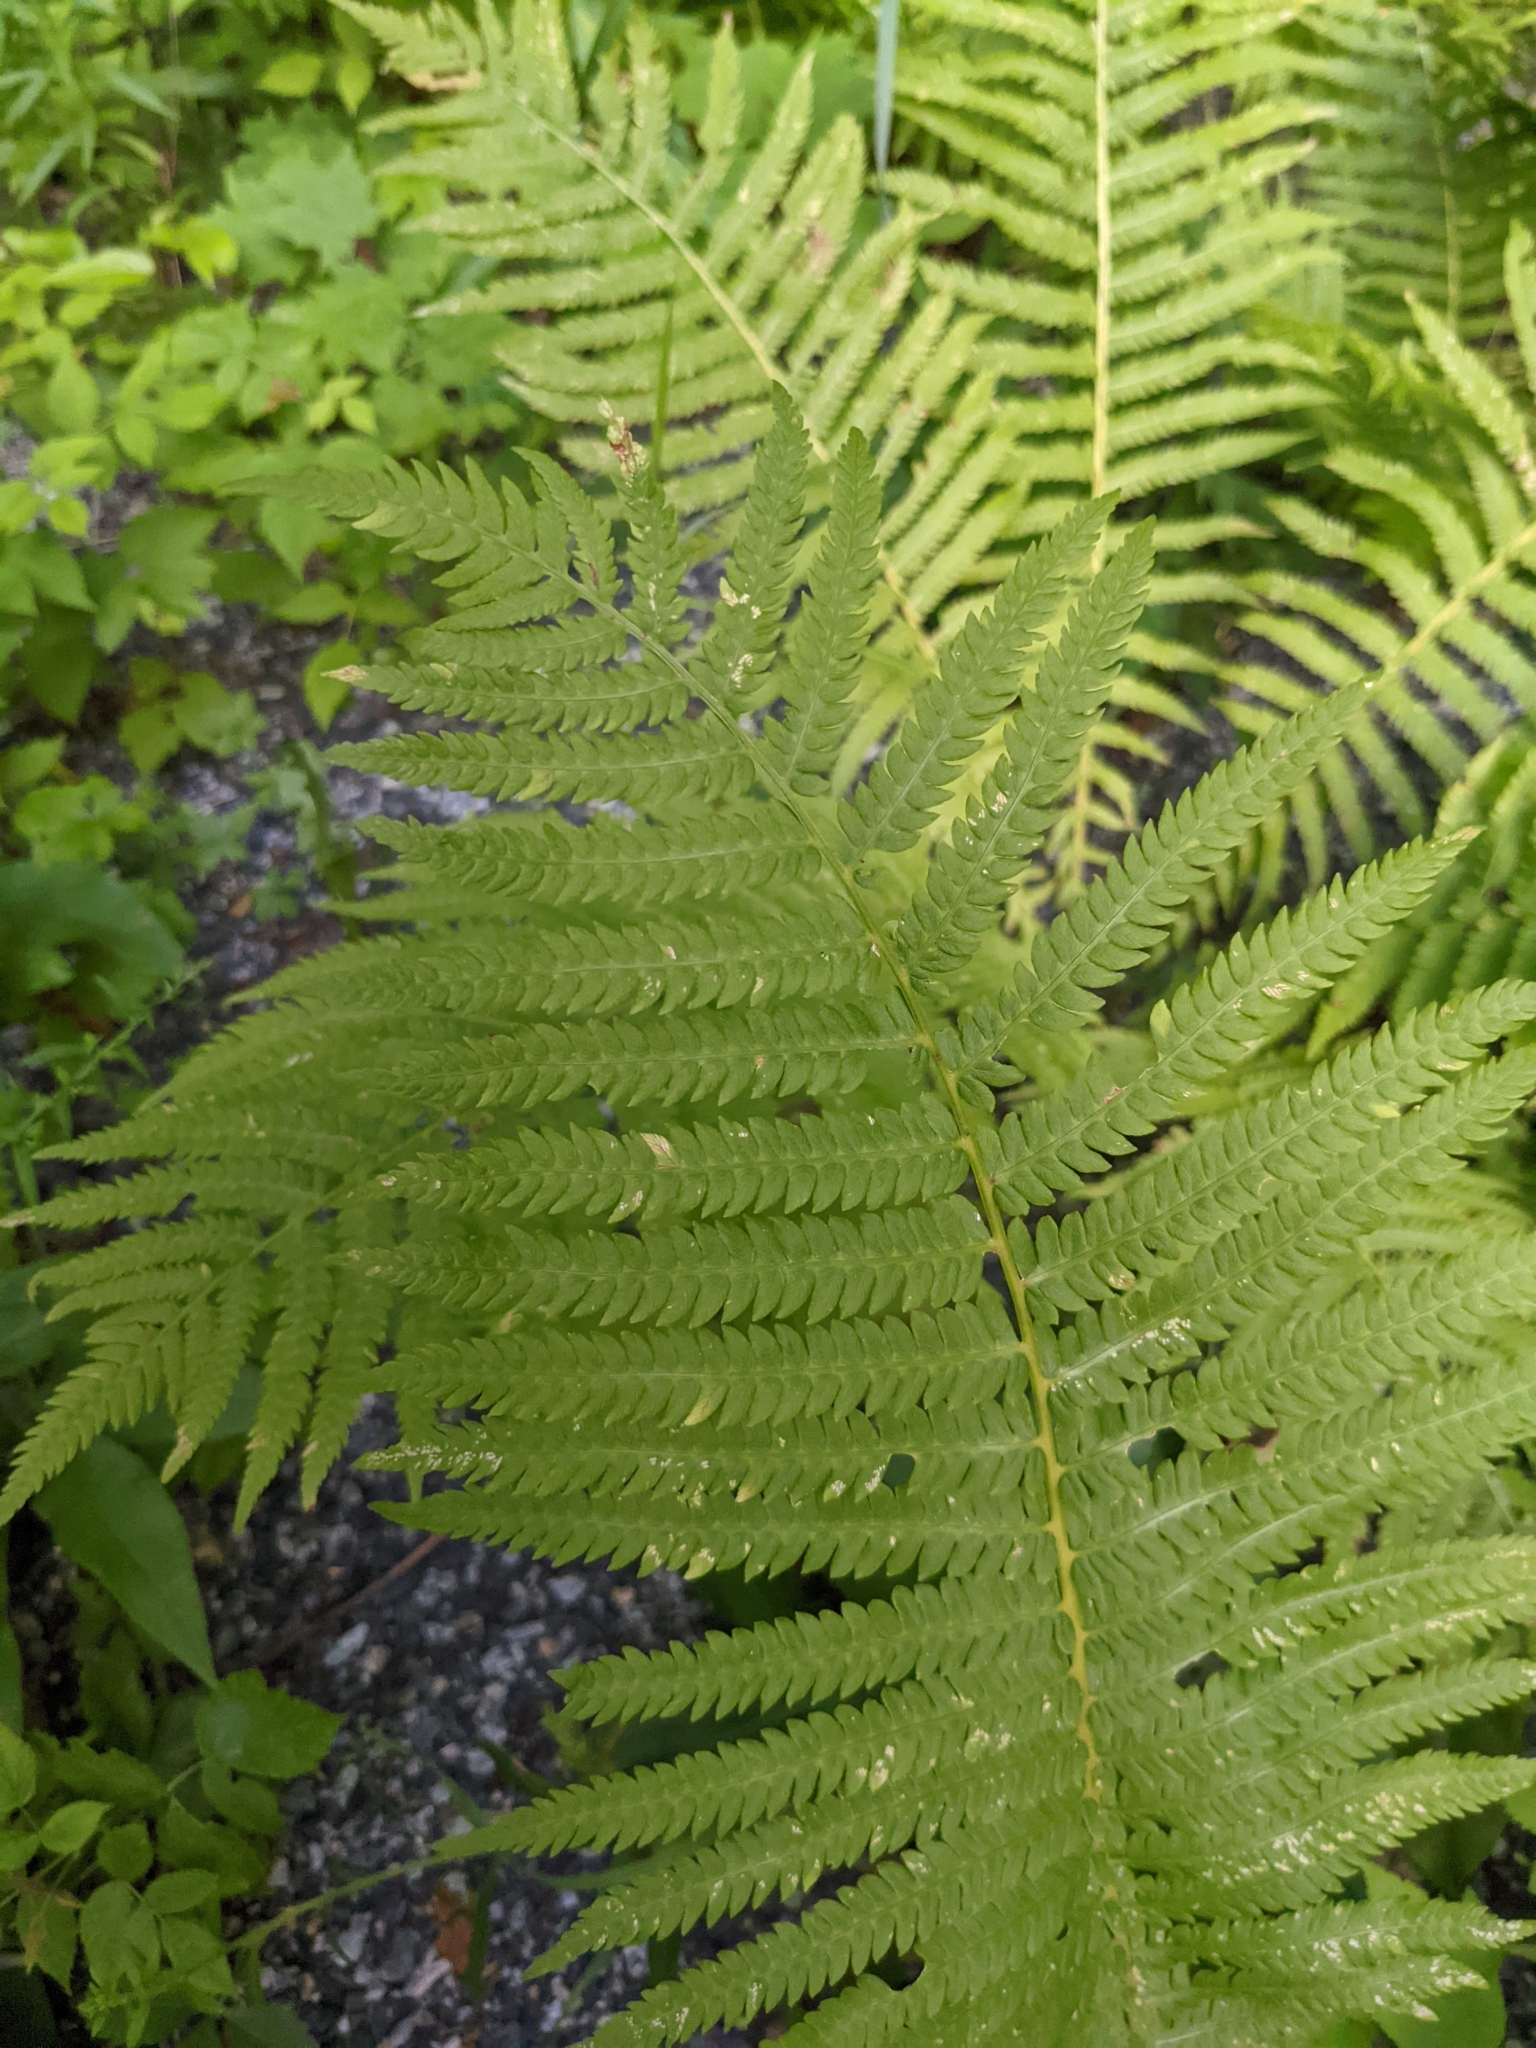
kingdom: Plantae
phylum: Tracheophyta
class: Polypodiopsida
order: Polypodiales
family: Thelypteridaceae
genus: Amauropelta
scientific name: Amauropelta noveboracensis
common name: New york fern
